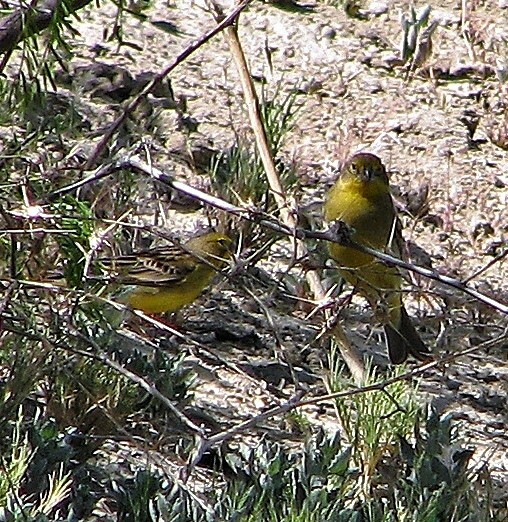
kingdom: Animalia
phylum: Chordata
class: Aves
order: Passeriformes
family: Thraupidae
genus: Sicalis
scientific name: Sicalis luteola
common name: Grassland yellow-finch
